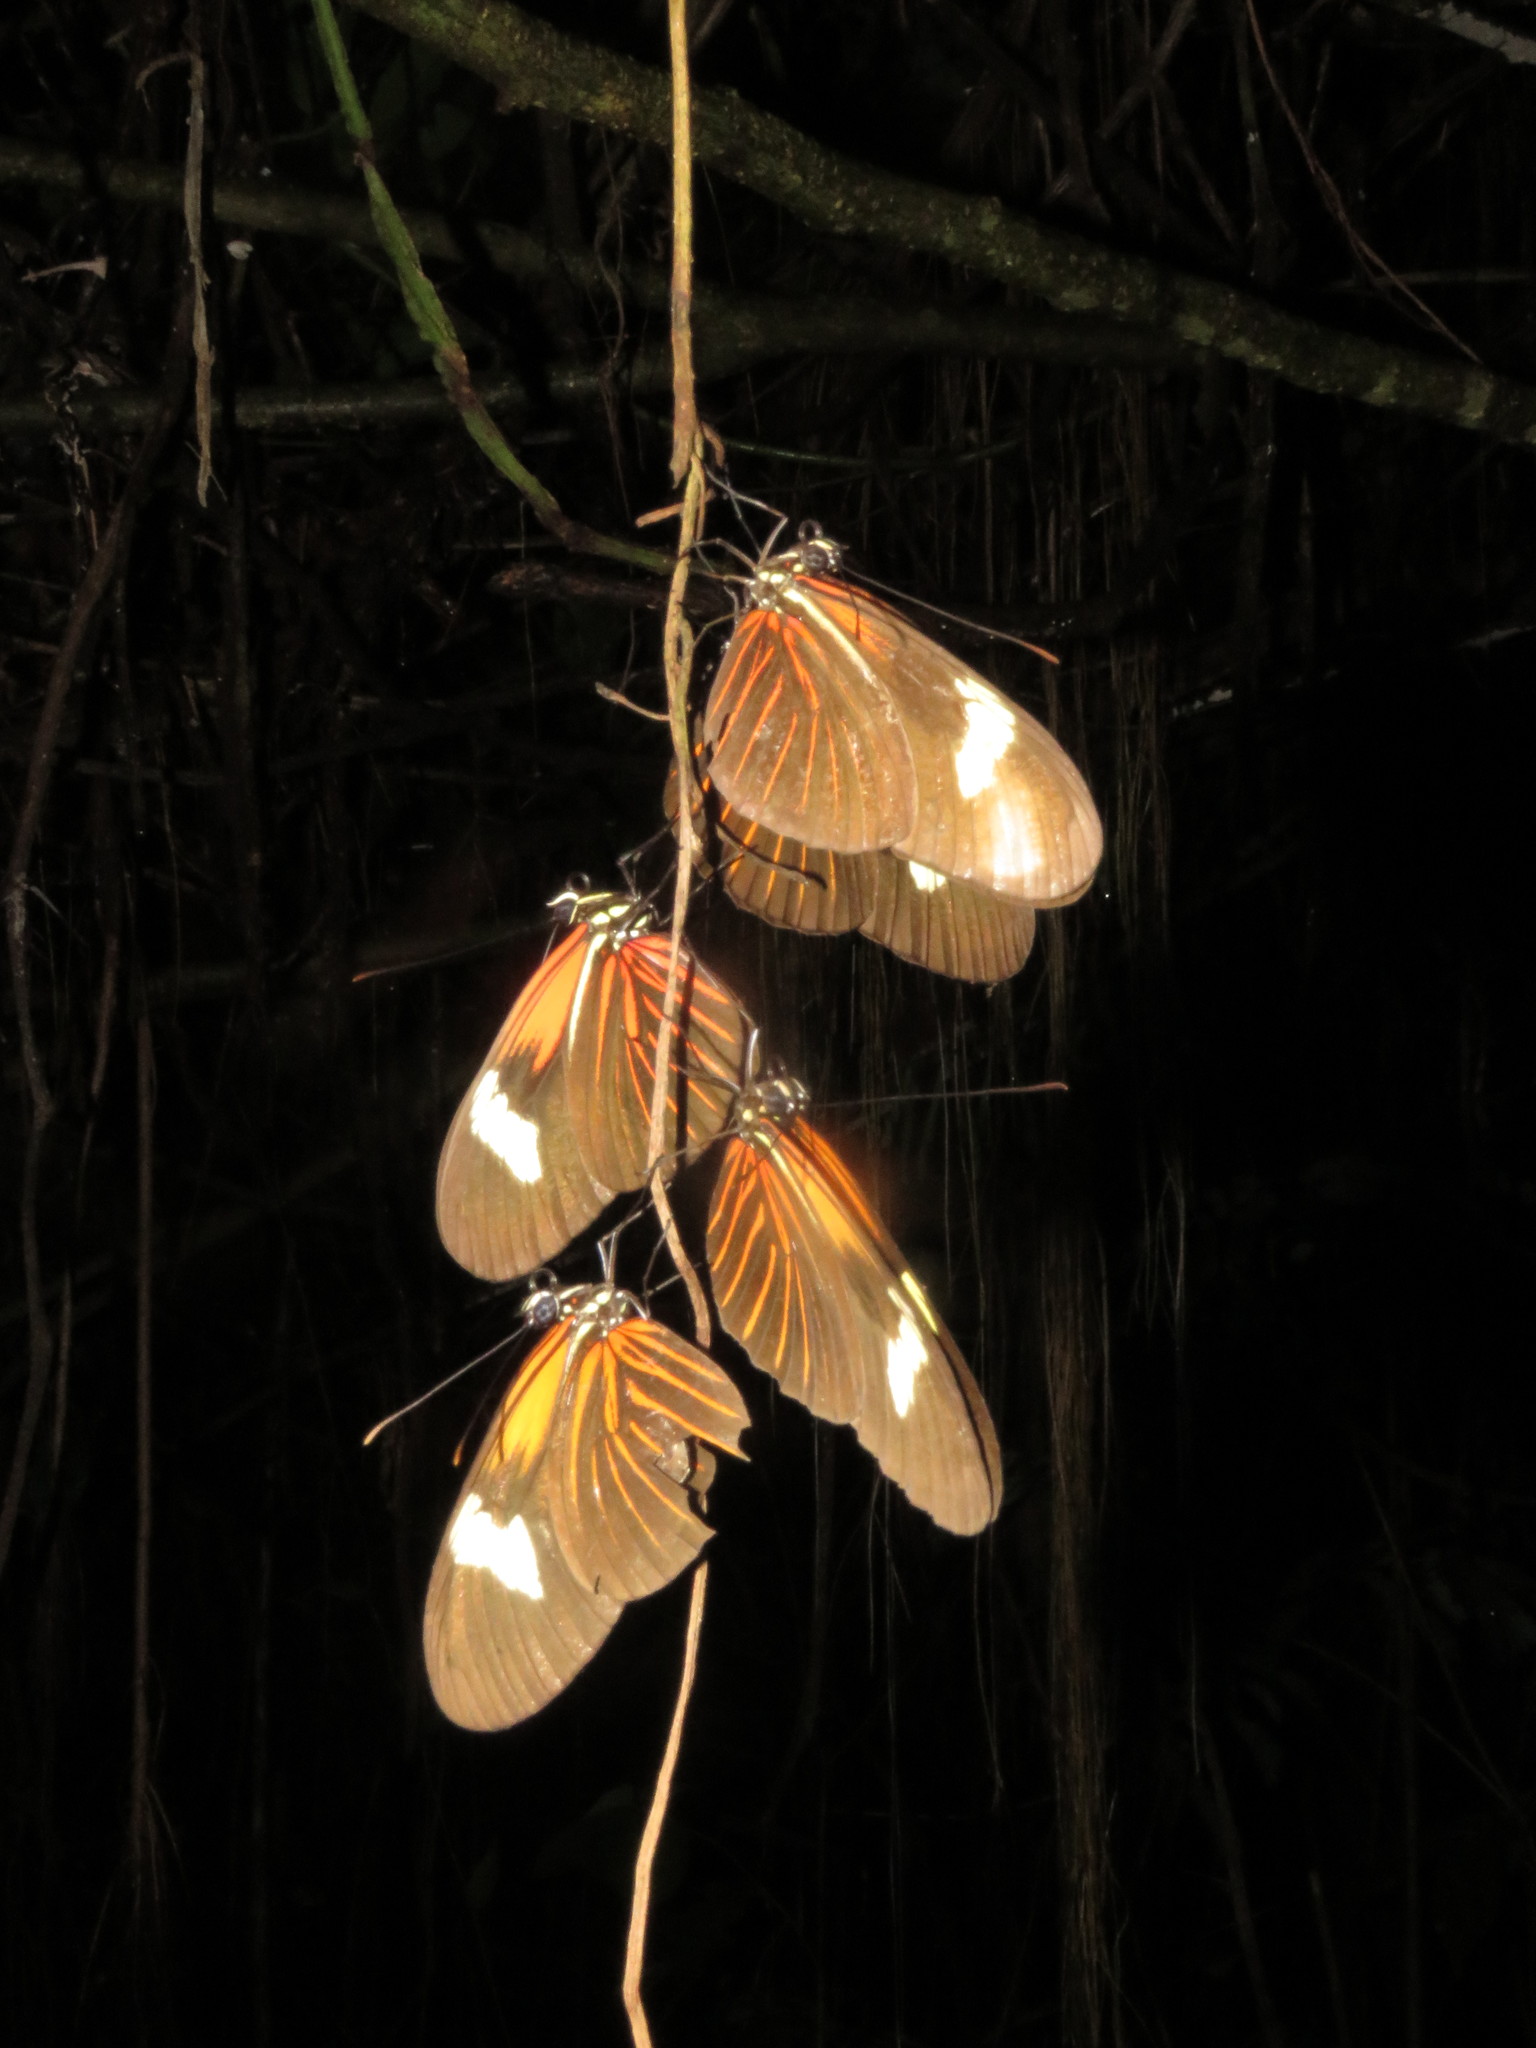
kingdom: Animalia
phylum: Arthropoda
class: Insecta
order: Lepidoptera
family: Nymphalidae
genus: Heliconius
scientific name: Heliconius erato
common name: Common patch longwing
